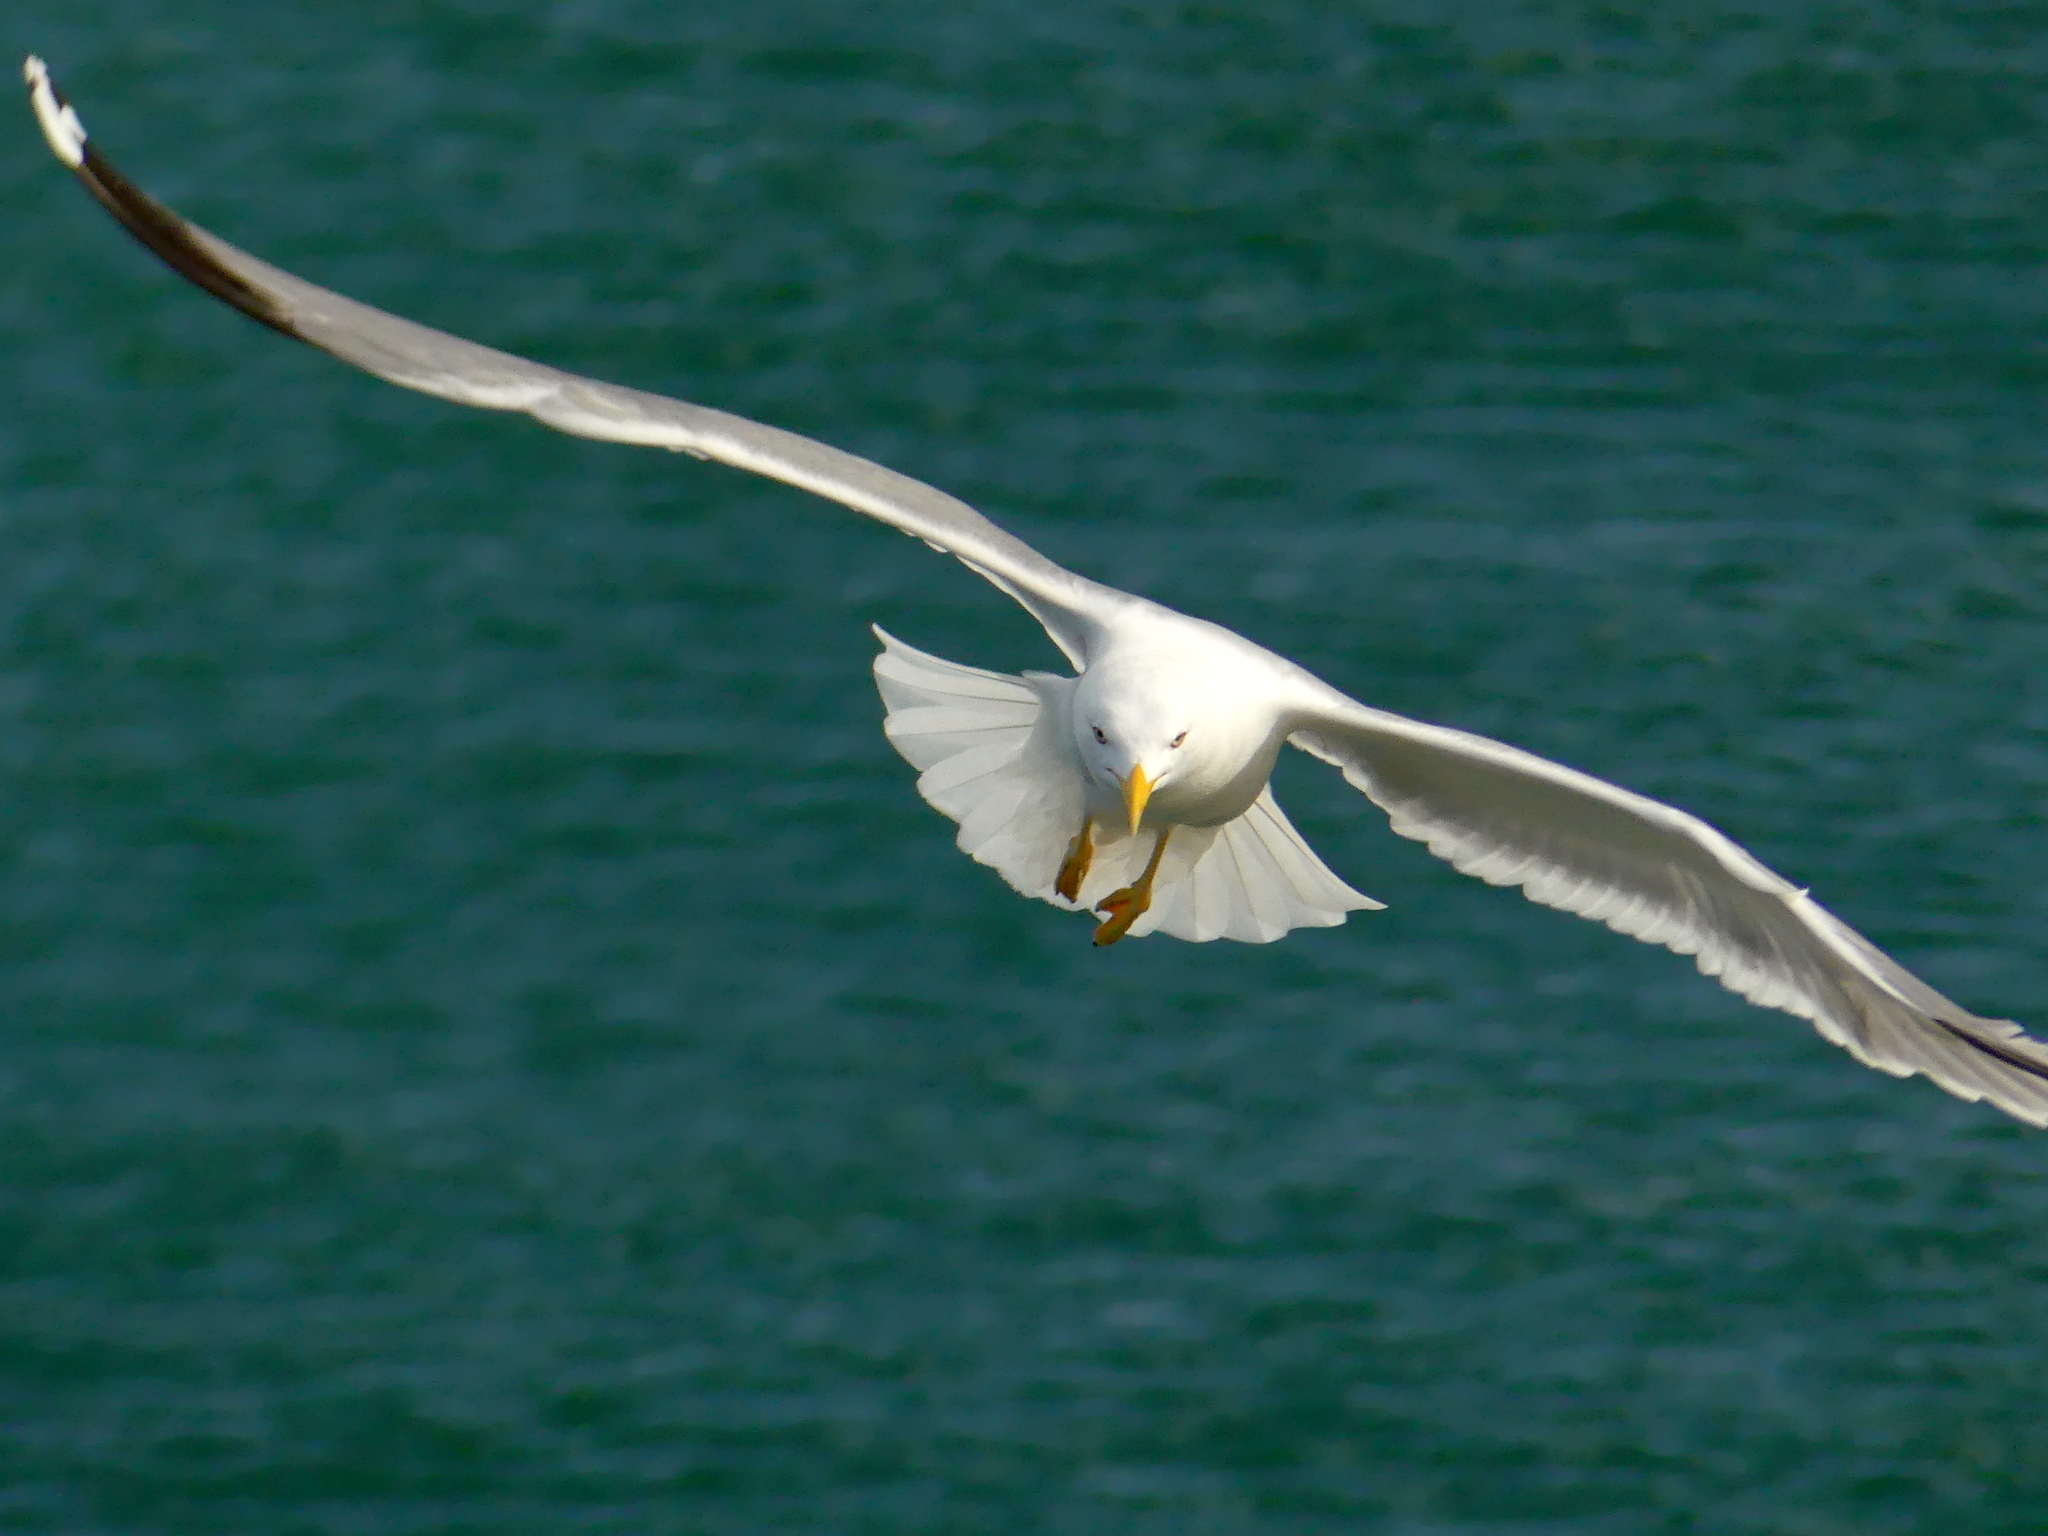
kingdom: Animalia
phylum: Chordata
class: Aves
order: Charadriiformes
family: Laridae
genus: Larus
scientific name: Larus michahellis
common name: Yellow-legged gull
